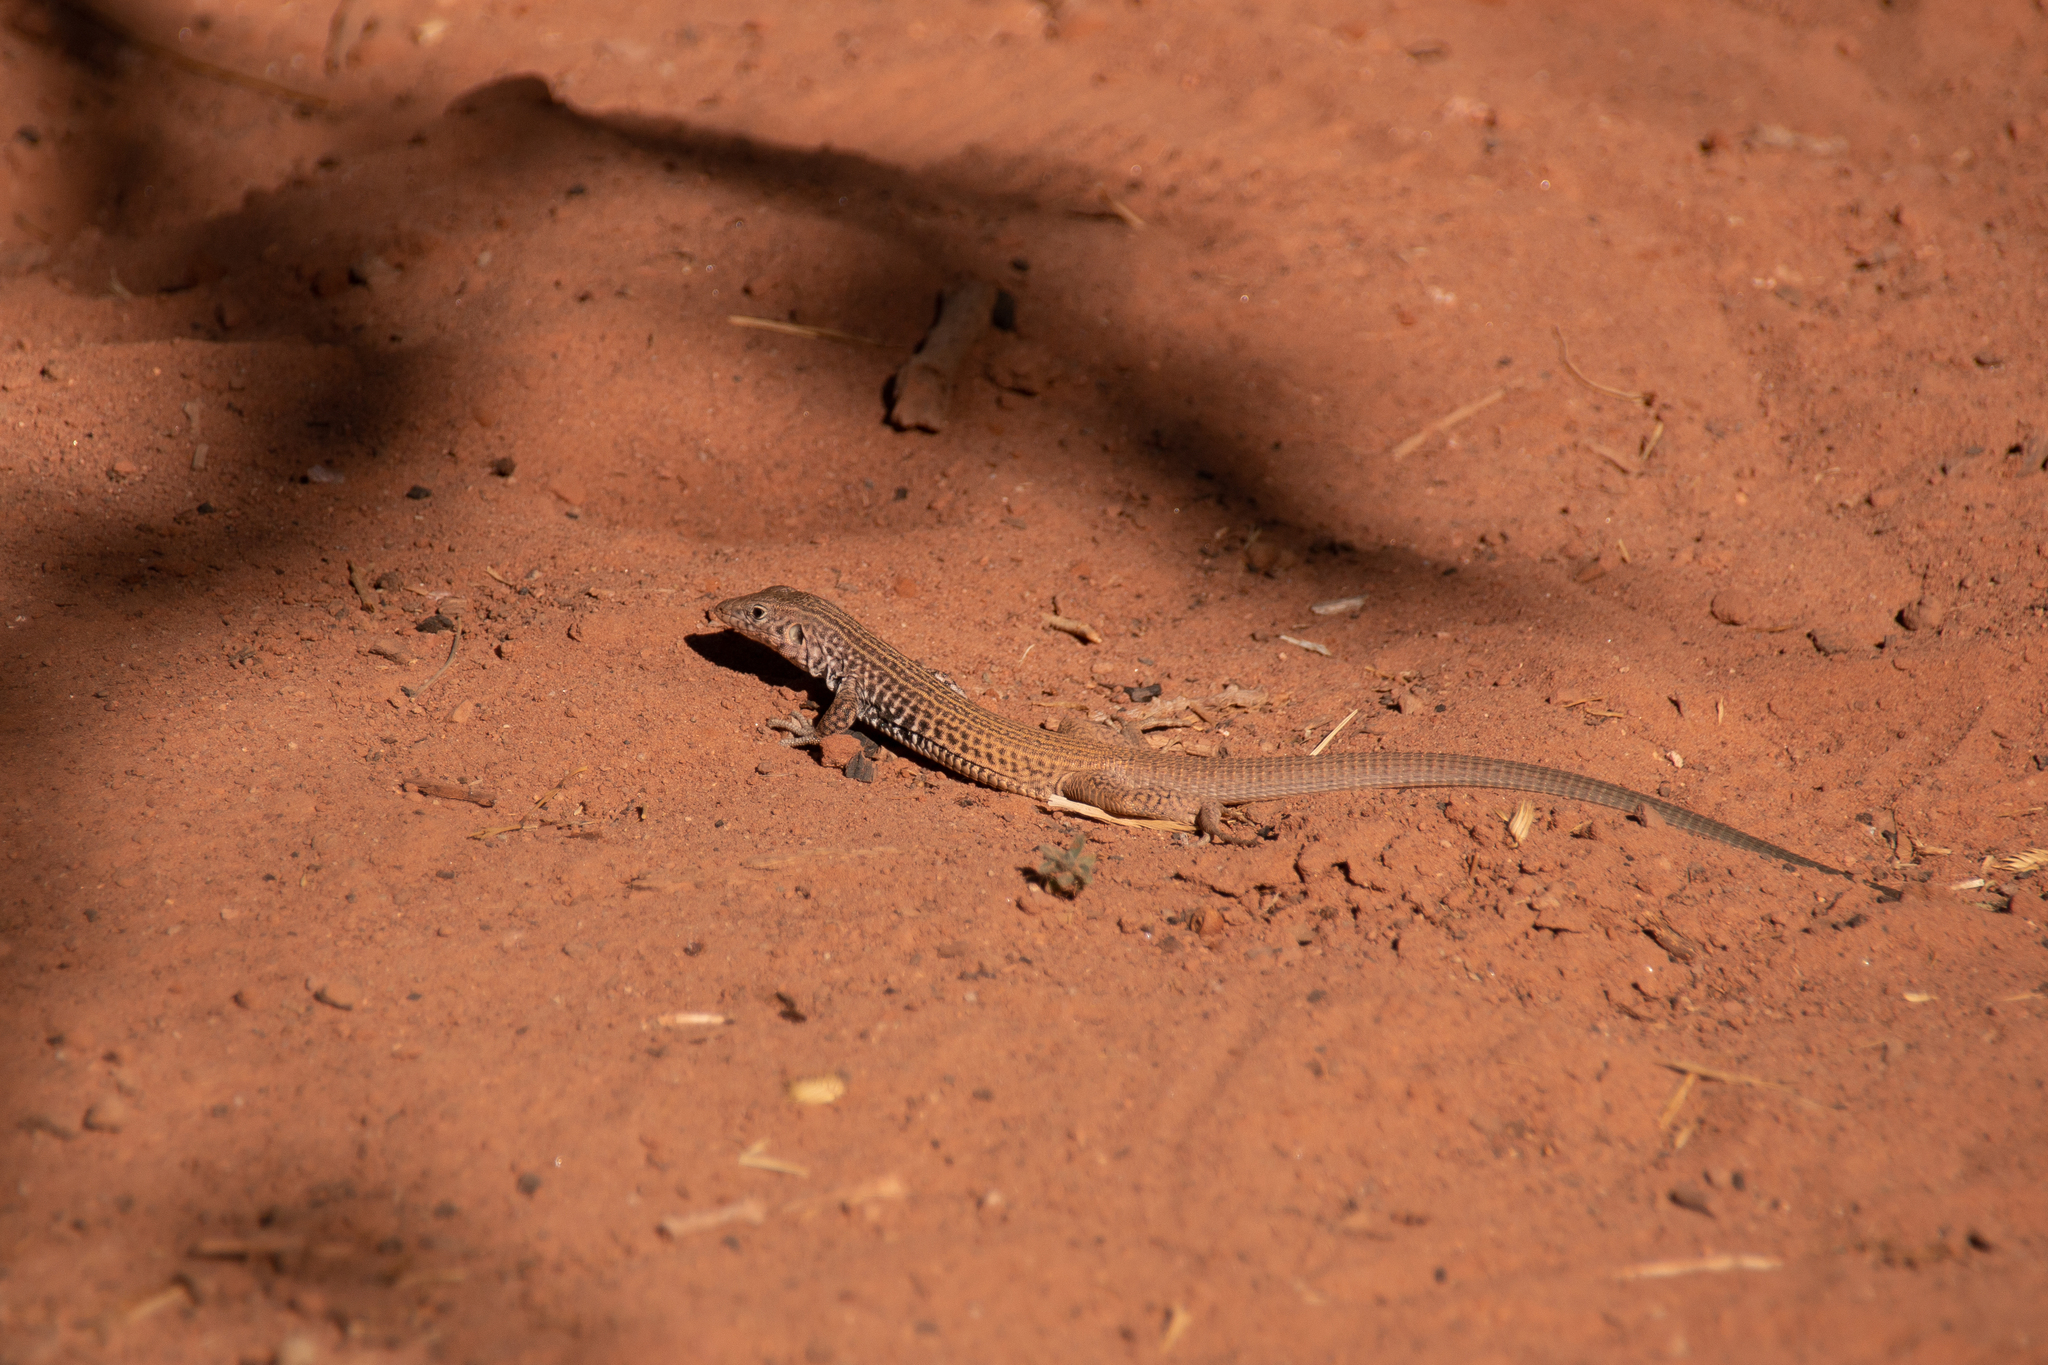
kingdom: Animalia
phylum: Chordata
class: Squamata
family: Teiidae
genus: Aspidoscelis
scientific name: Aspidoscelis tigris
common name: Tiger whiptail
